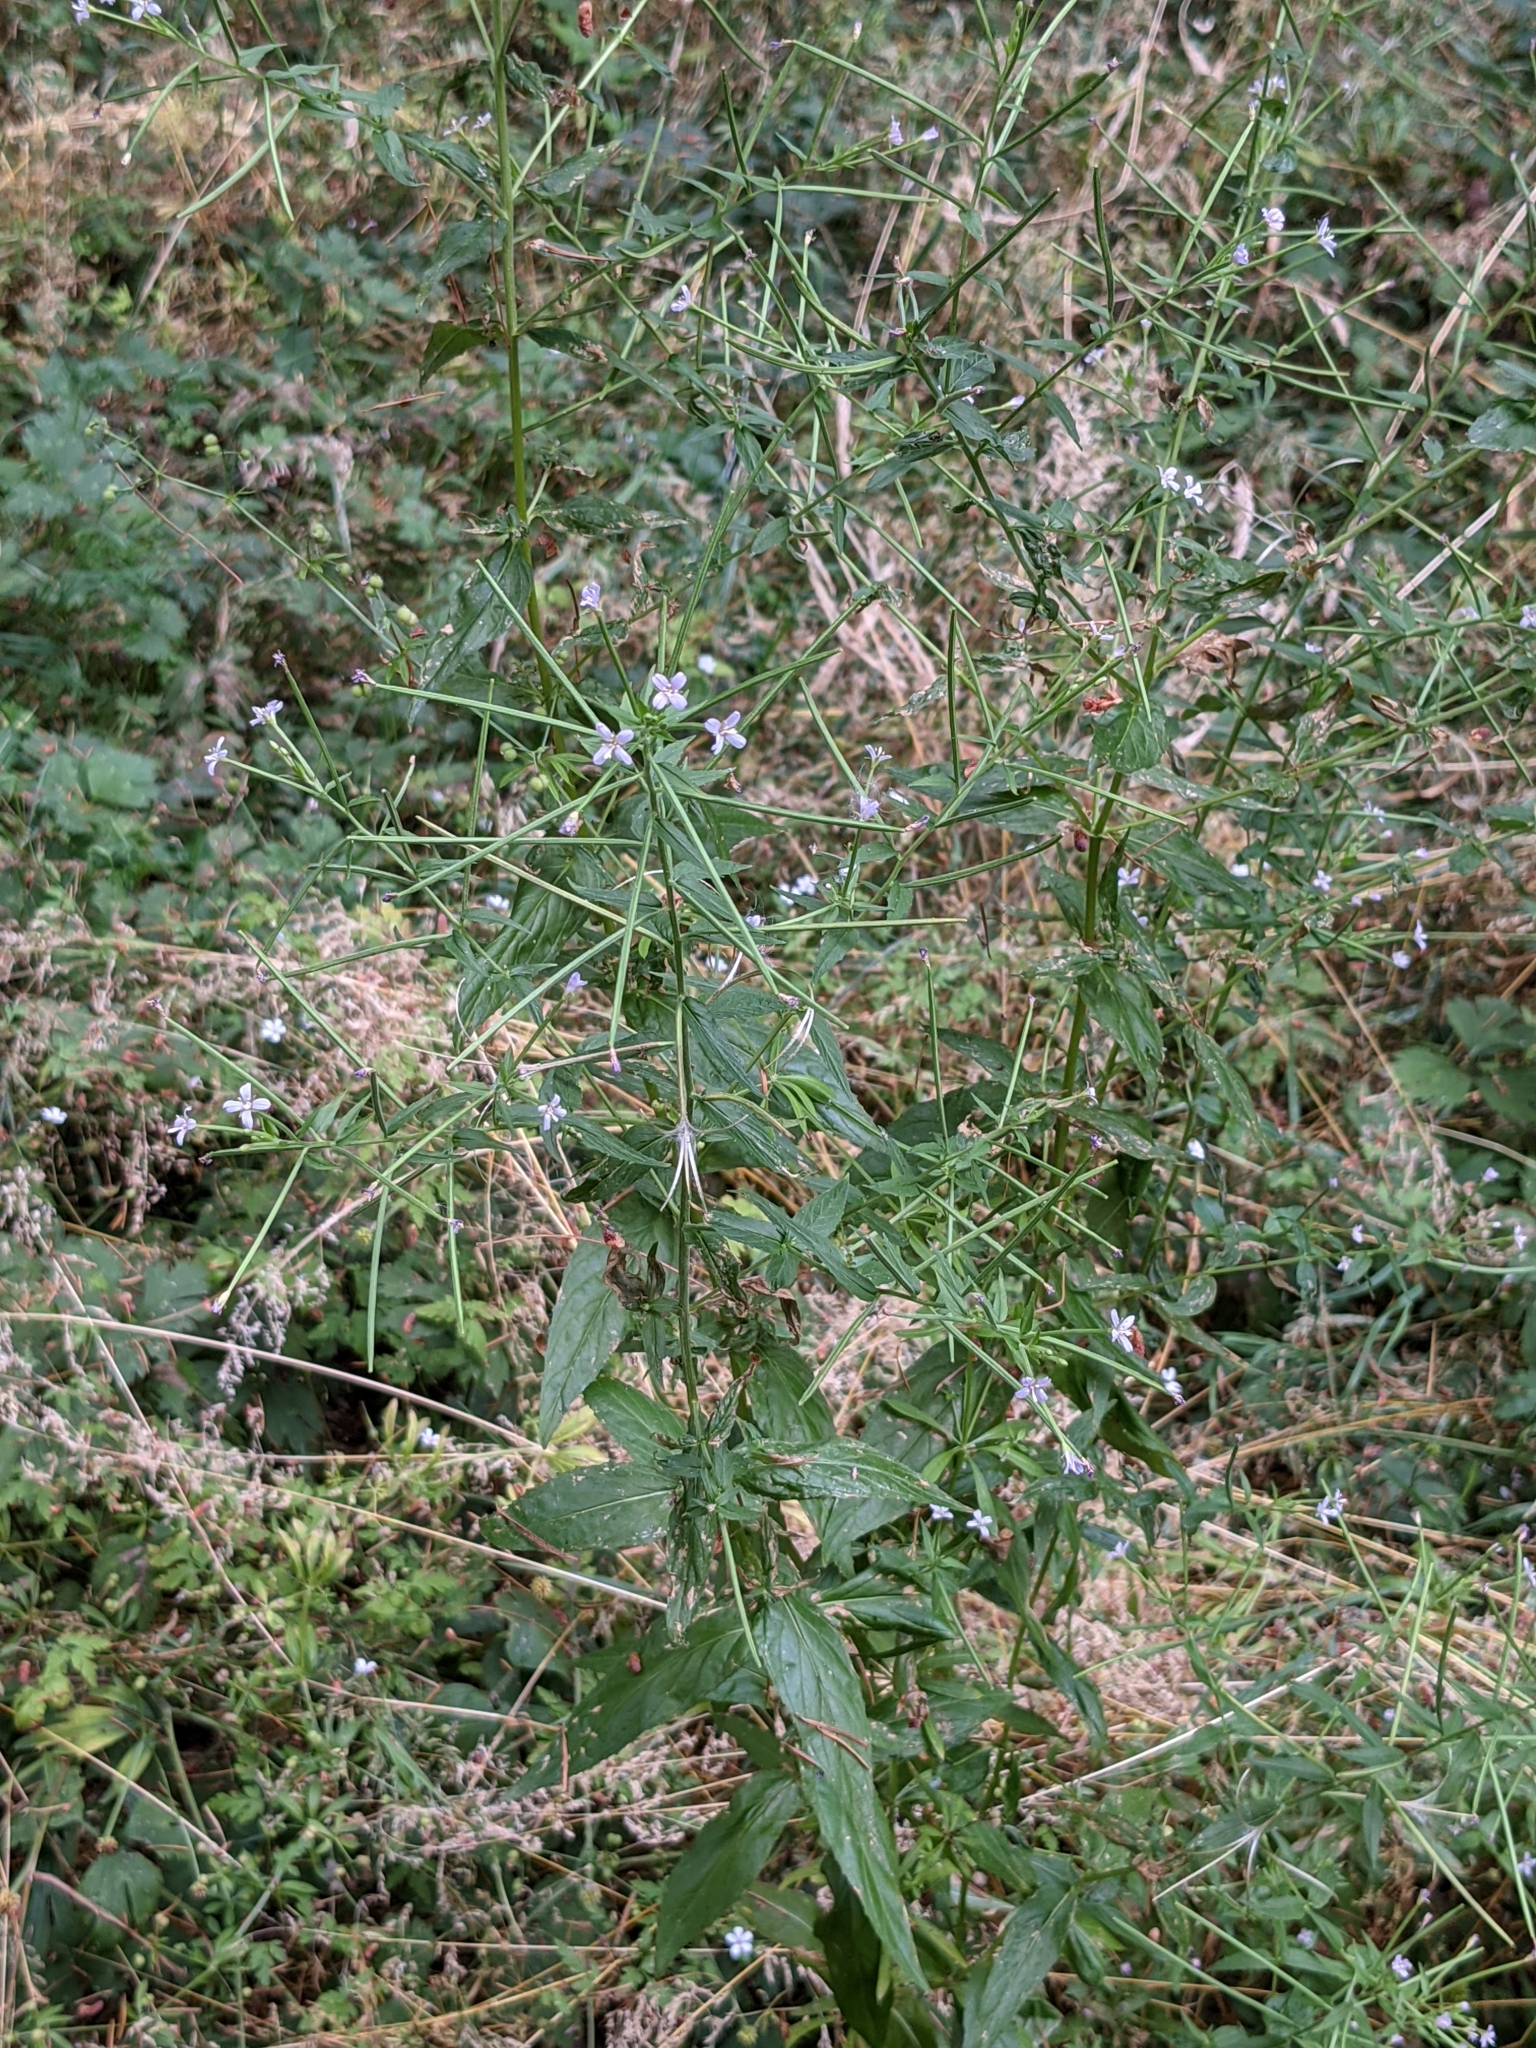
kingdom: Plantae
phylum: Tracheophyta
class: Magnoliopsida
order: Myrtales
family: Onagraceae
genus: Epilobium
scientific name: Epilobium ciliatum
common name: American willowherb
